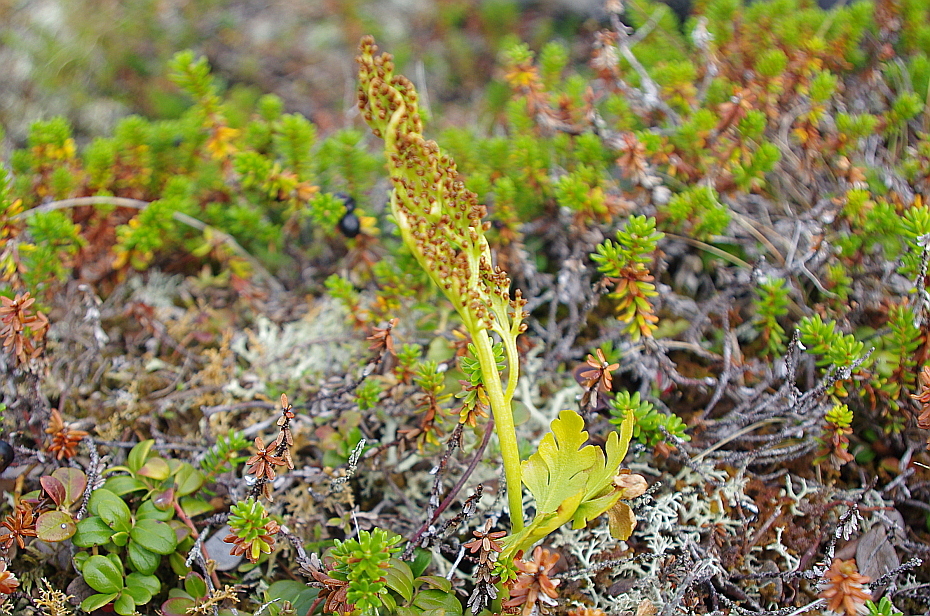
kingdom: Plantae
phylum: Tracheophyta
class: Polypodiopsida
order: Ophioglossales
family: Ophioglossaceae
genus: Botrychium
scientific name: Botrychium boreale
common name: Boreal moonwort
